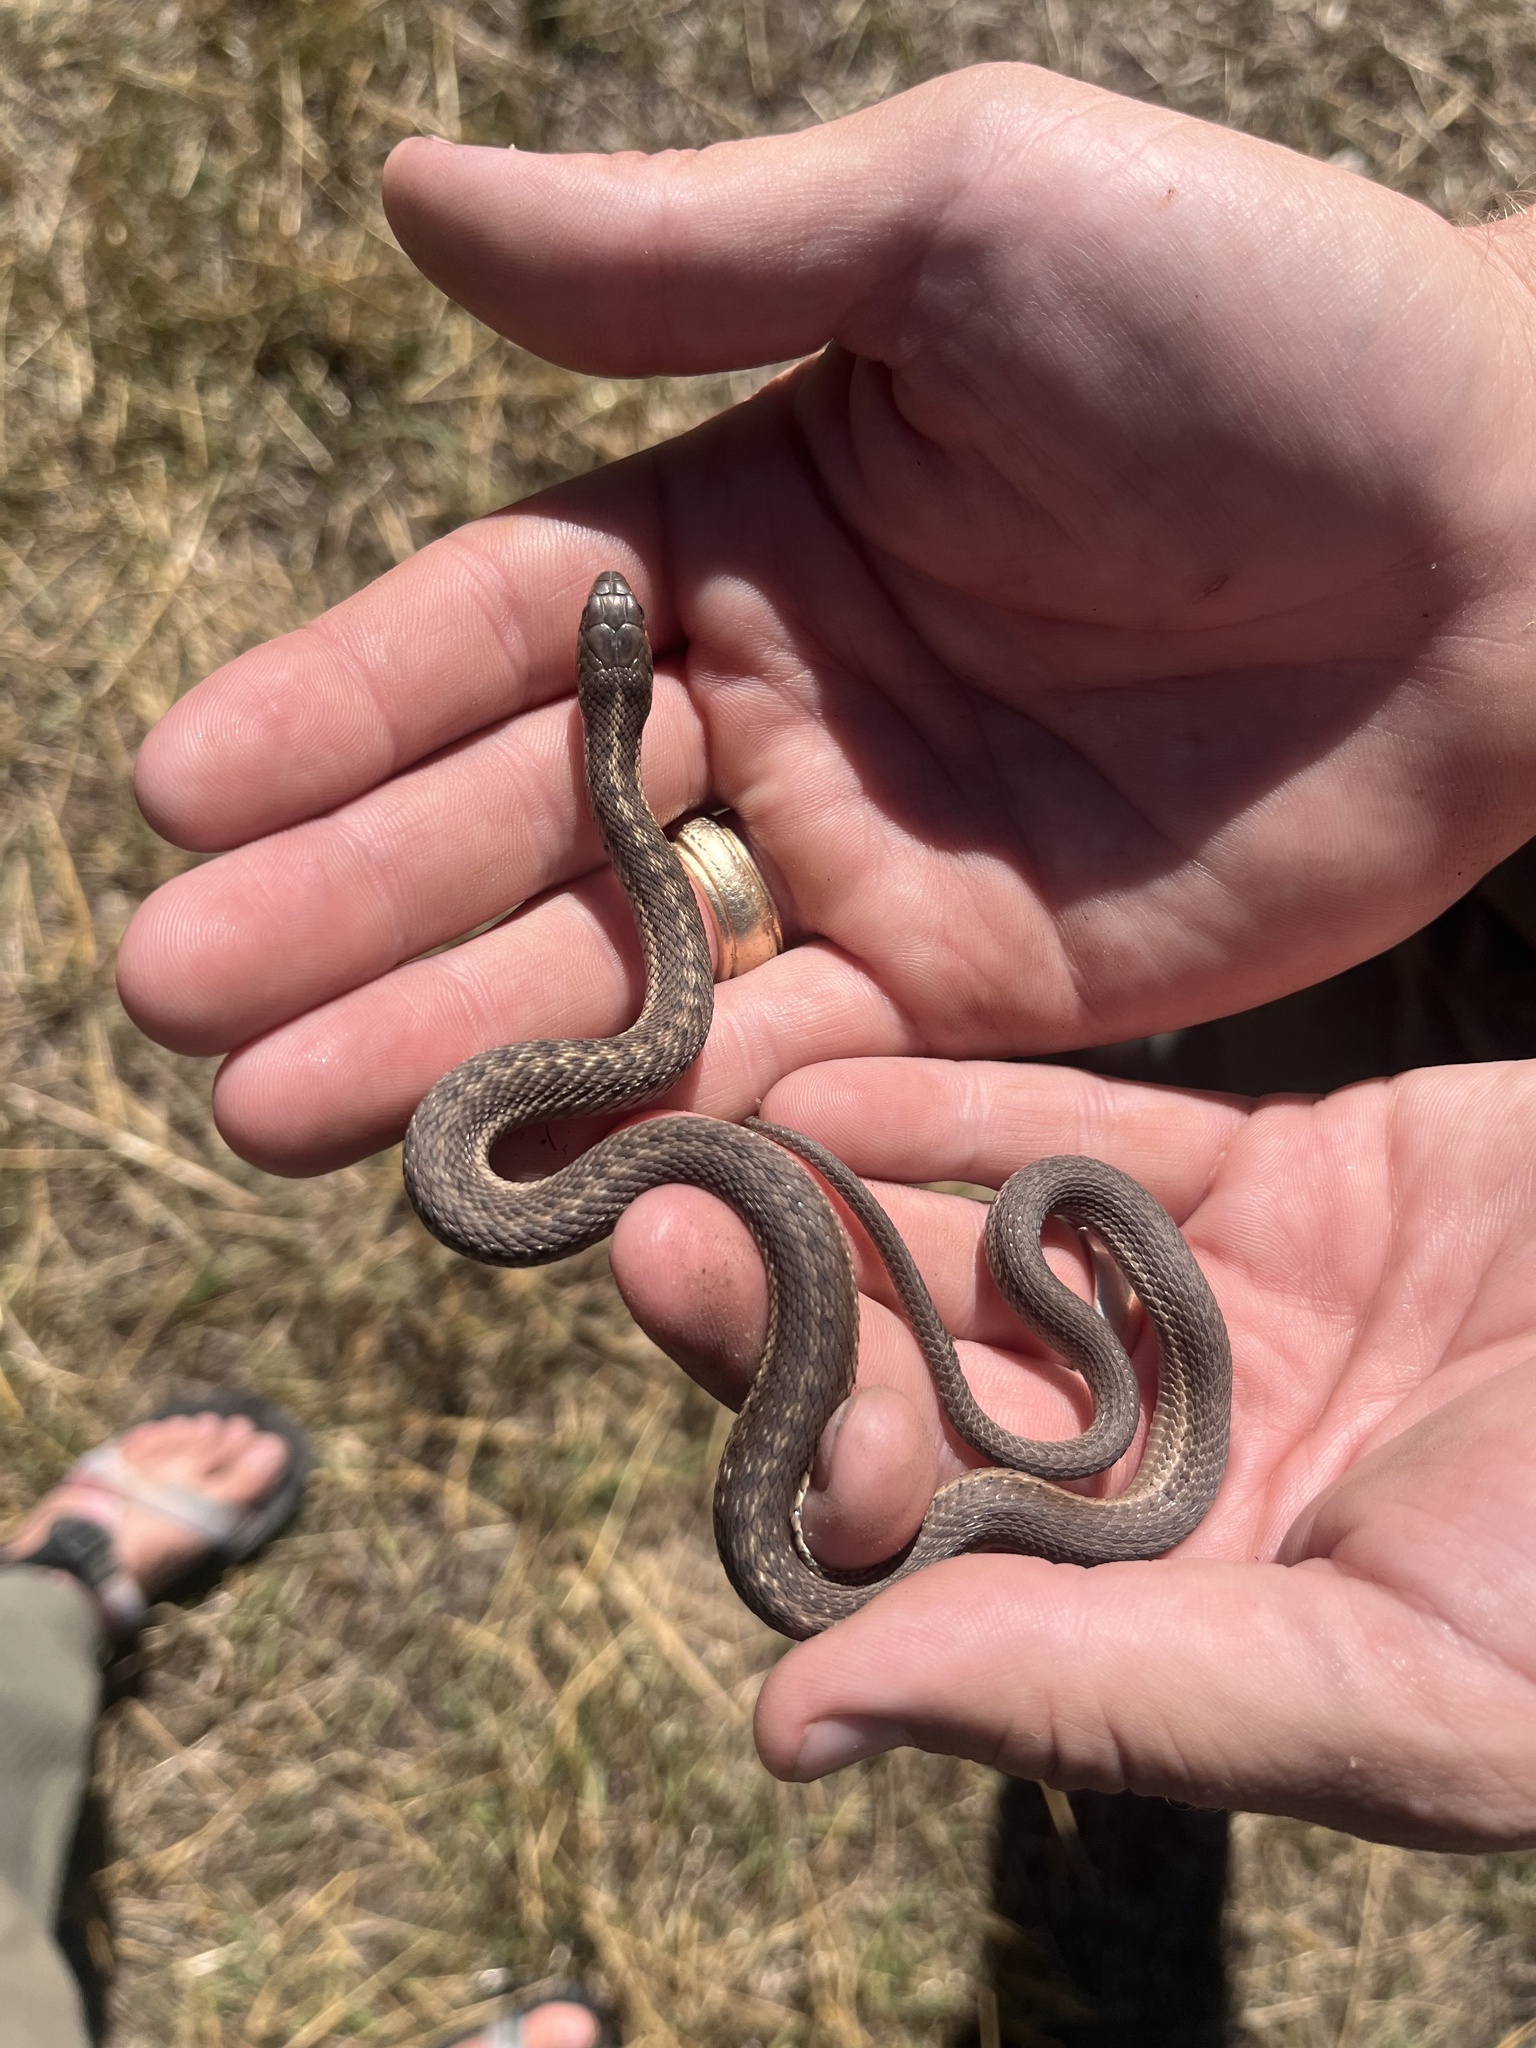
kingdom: Animalia
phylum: Chordata
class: Squamata
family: Colubridae
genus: Thamnophis
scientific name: Thamnophis elegans
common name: Western terrestrial garter snake
